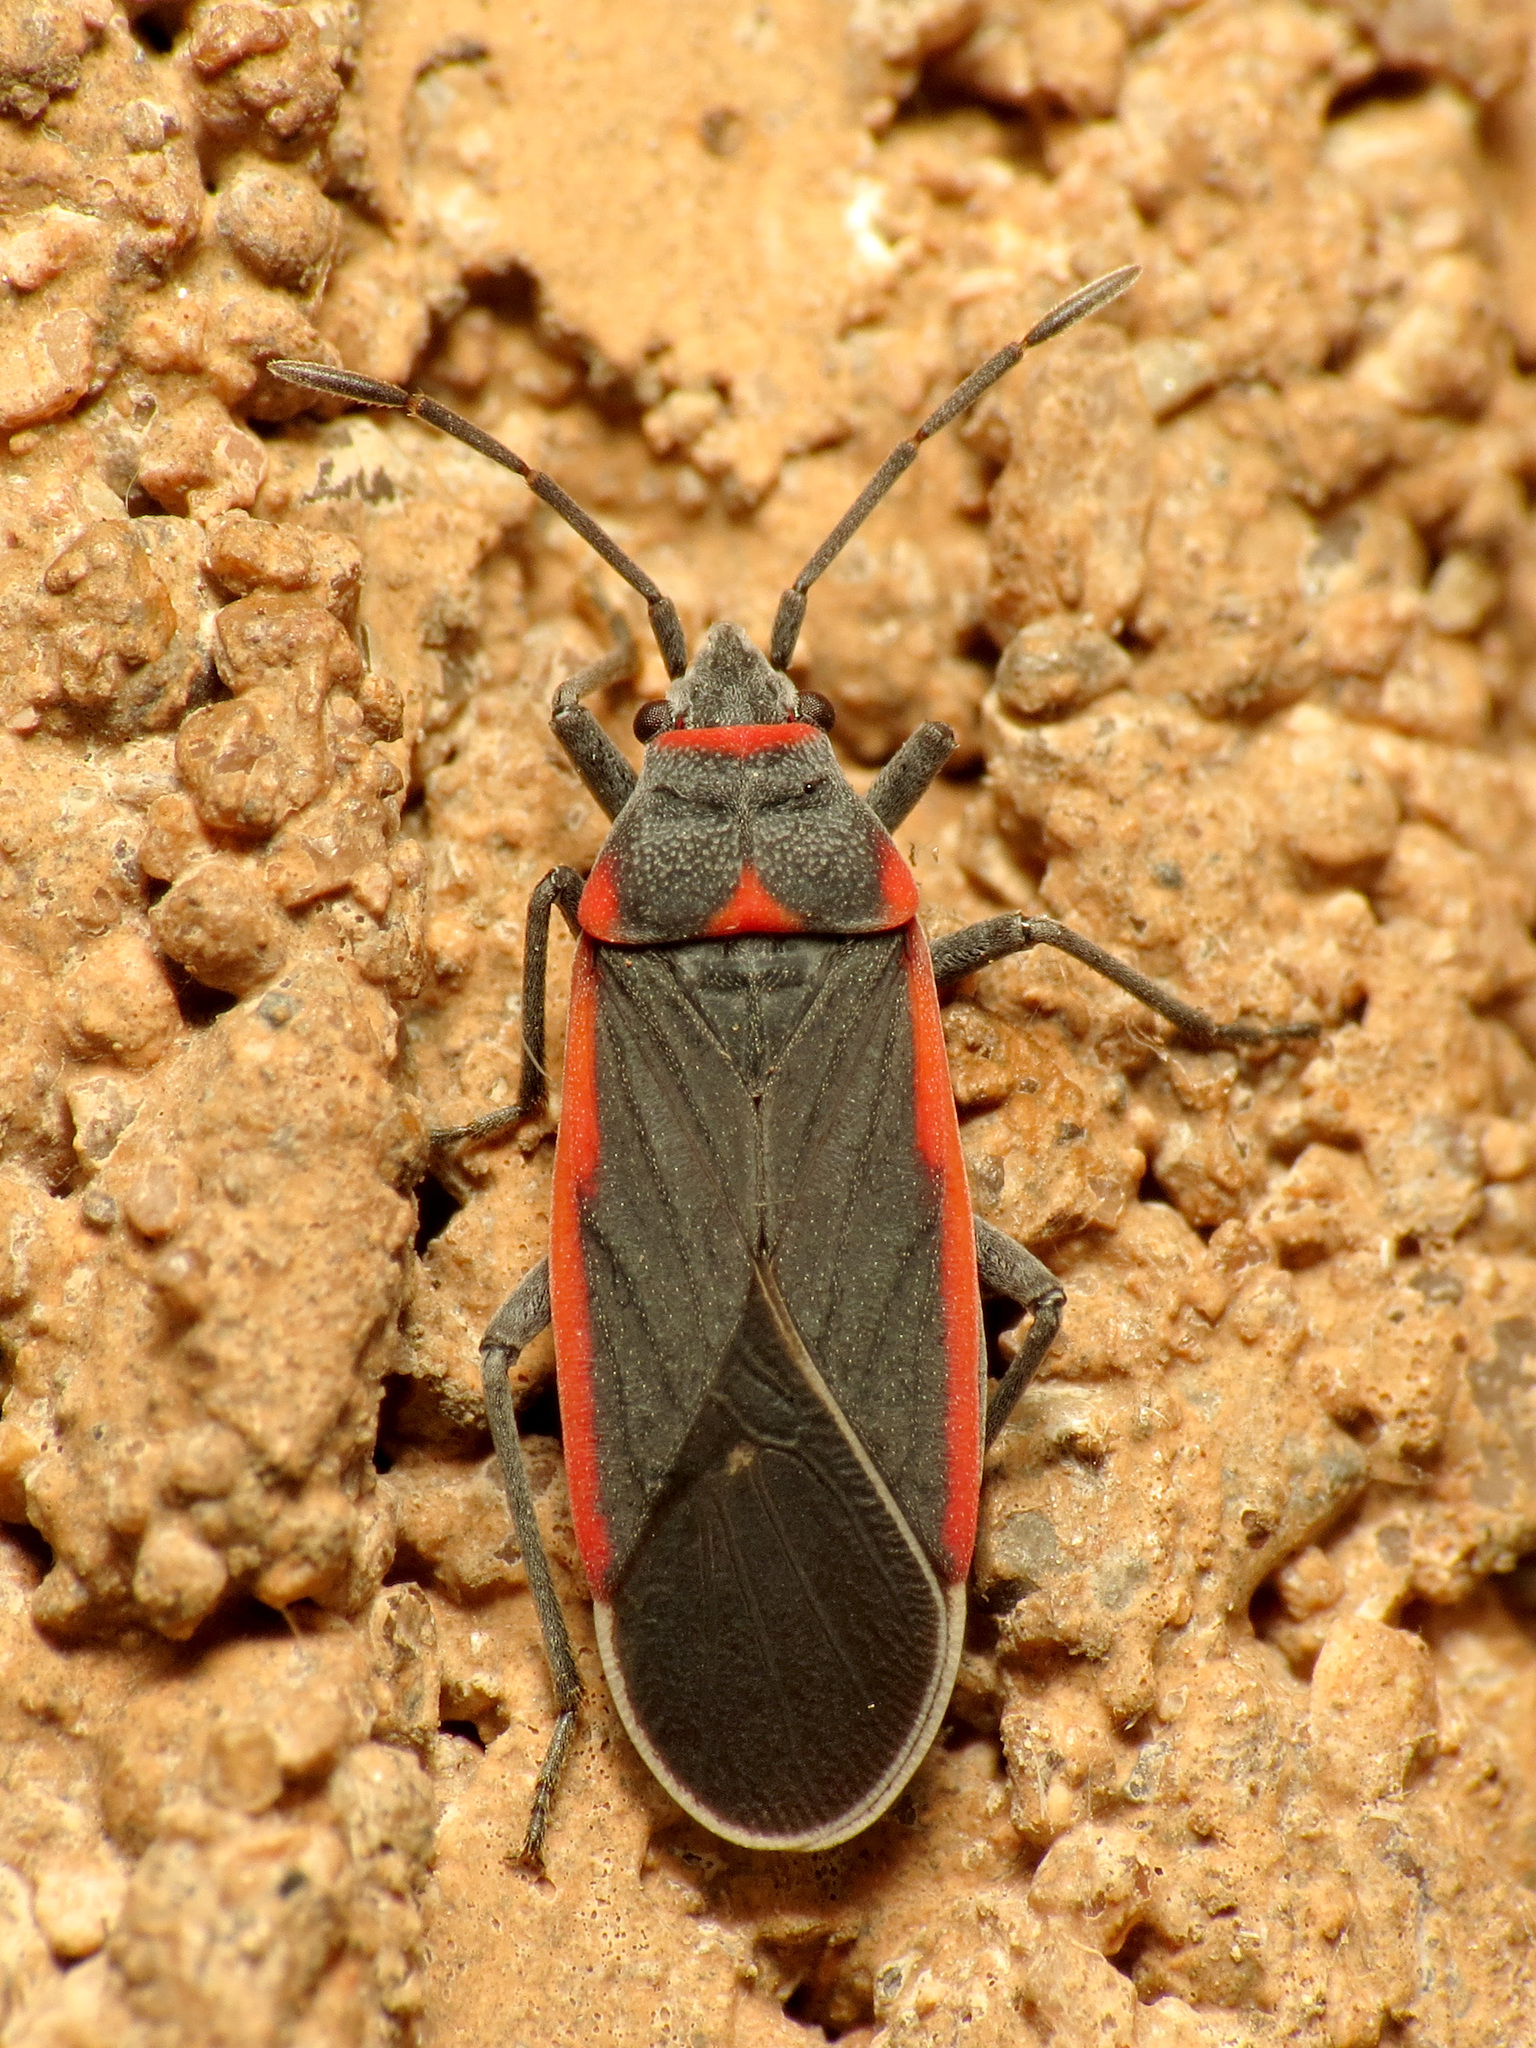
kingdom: Animalia
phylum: Arthropoda
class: Insecta
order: Hemiptera
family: Lygaeidae
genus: Melacoryphus
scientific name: Melacoryphus lateralis
